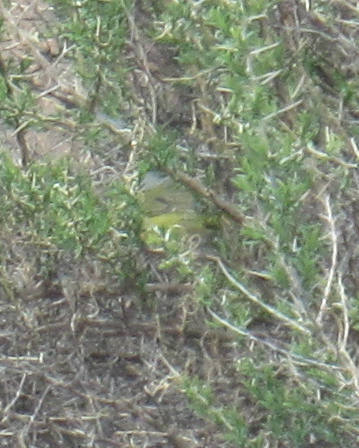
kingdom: Animalia
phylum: Chordata
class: Aves
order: Passeriformes
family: Parulidae
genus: Leiothlypis
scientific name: Leiothlypis ruficapilla
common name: Nashville warbler
